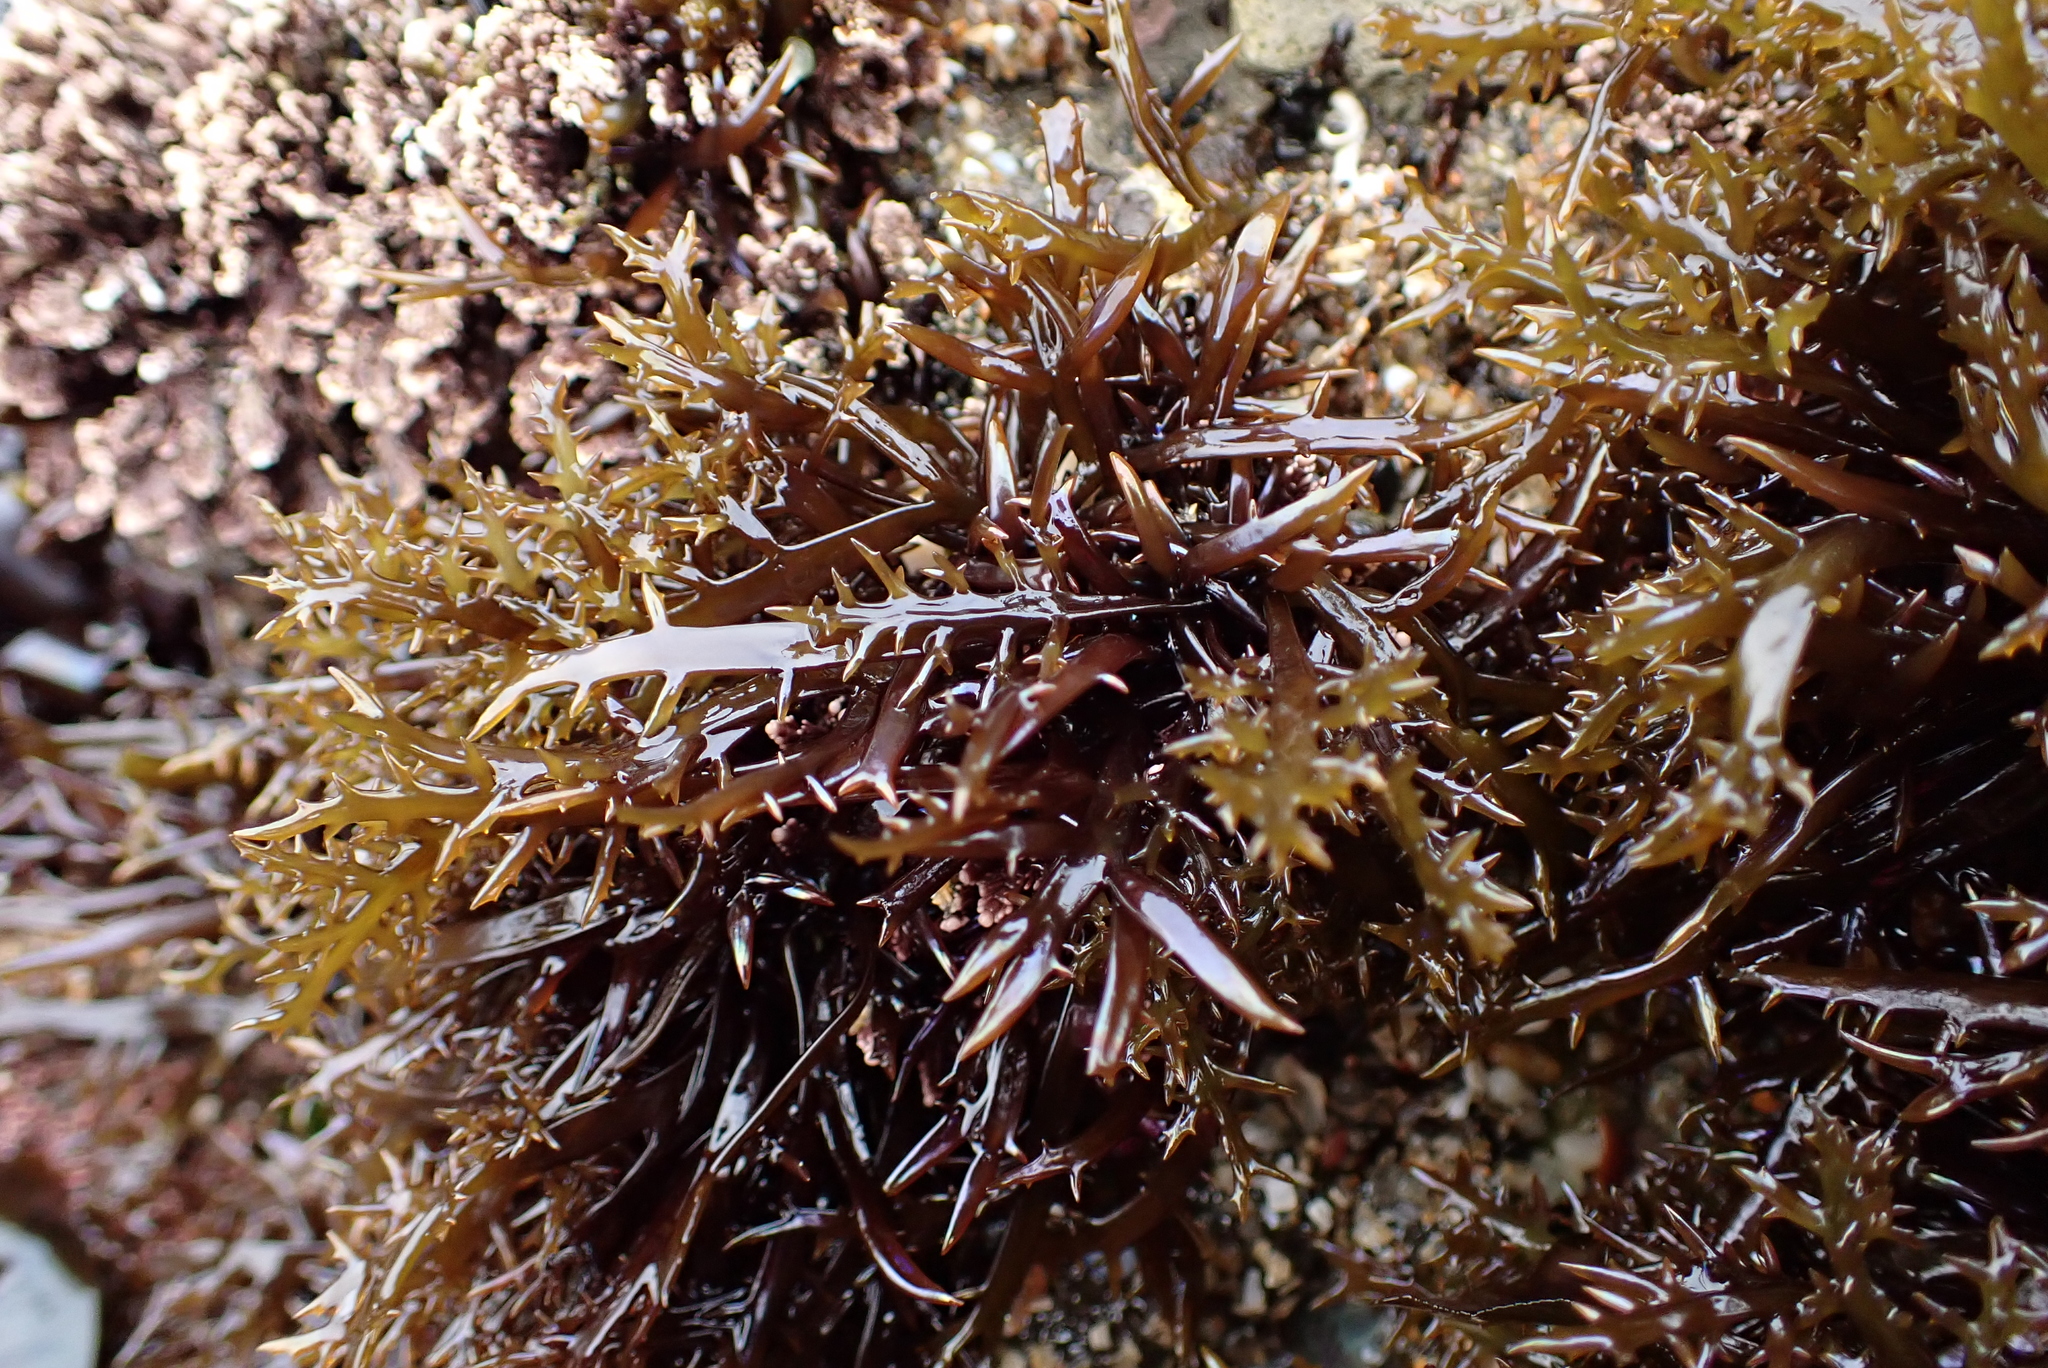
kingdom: Plantae
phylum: Rhodophyta
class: Florideophyceae
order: Gigartinales
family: Gigartinaceae
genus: Chondracanthus
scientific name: Chondracanthus canaliculatus
